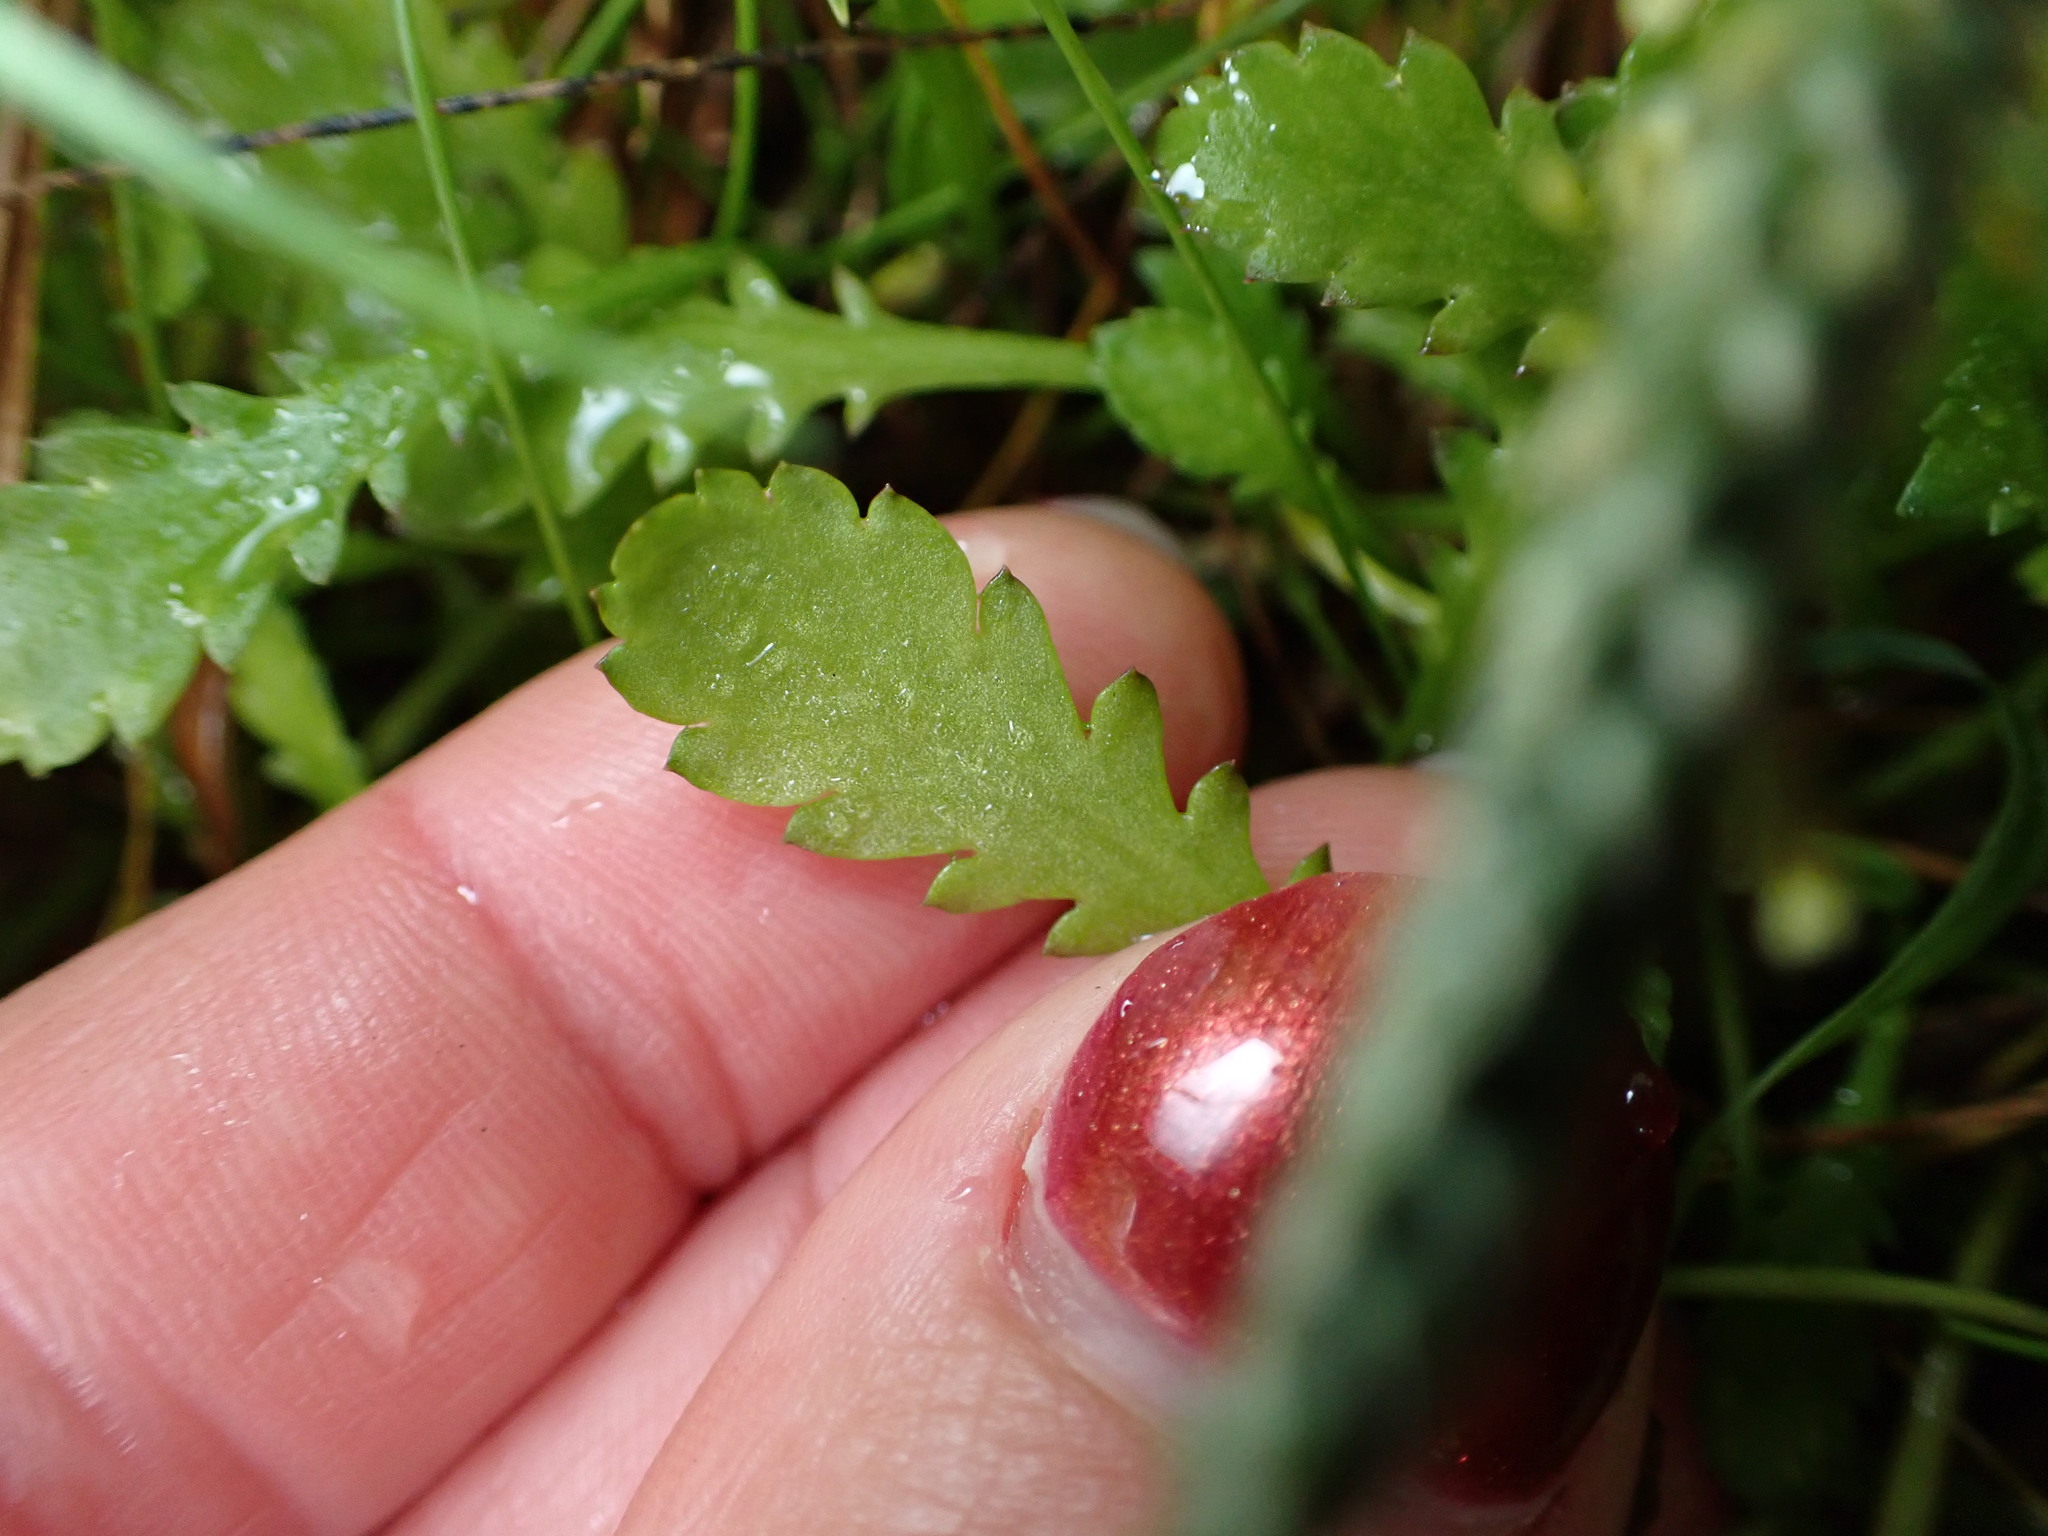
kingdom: Plantae
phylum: Tracheophyta
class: Magnoliopsida
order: Asterales
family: Asteraceae
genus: Leptinella
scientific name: Leptinella dioica
